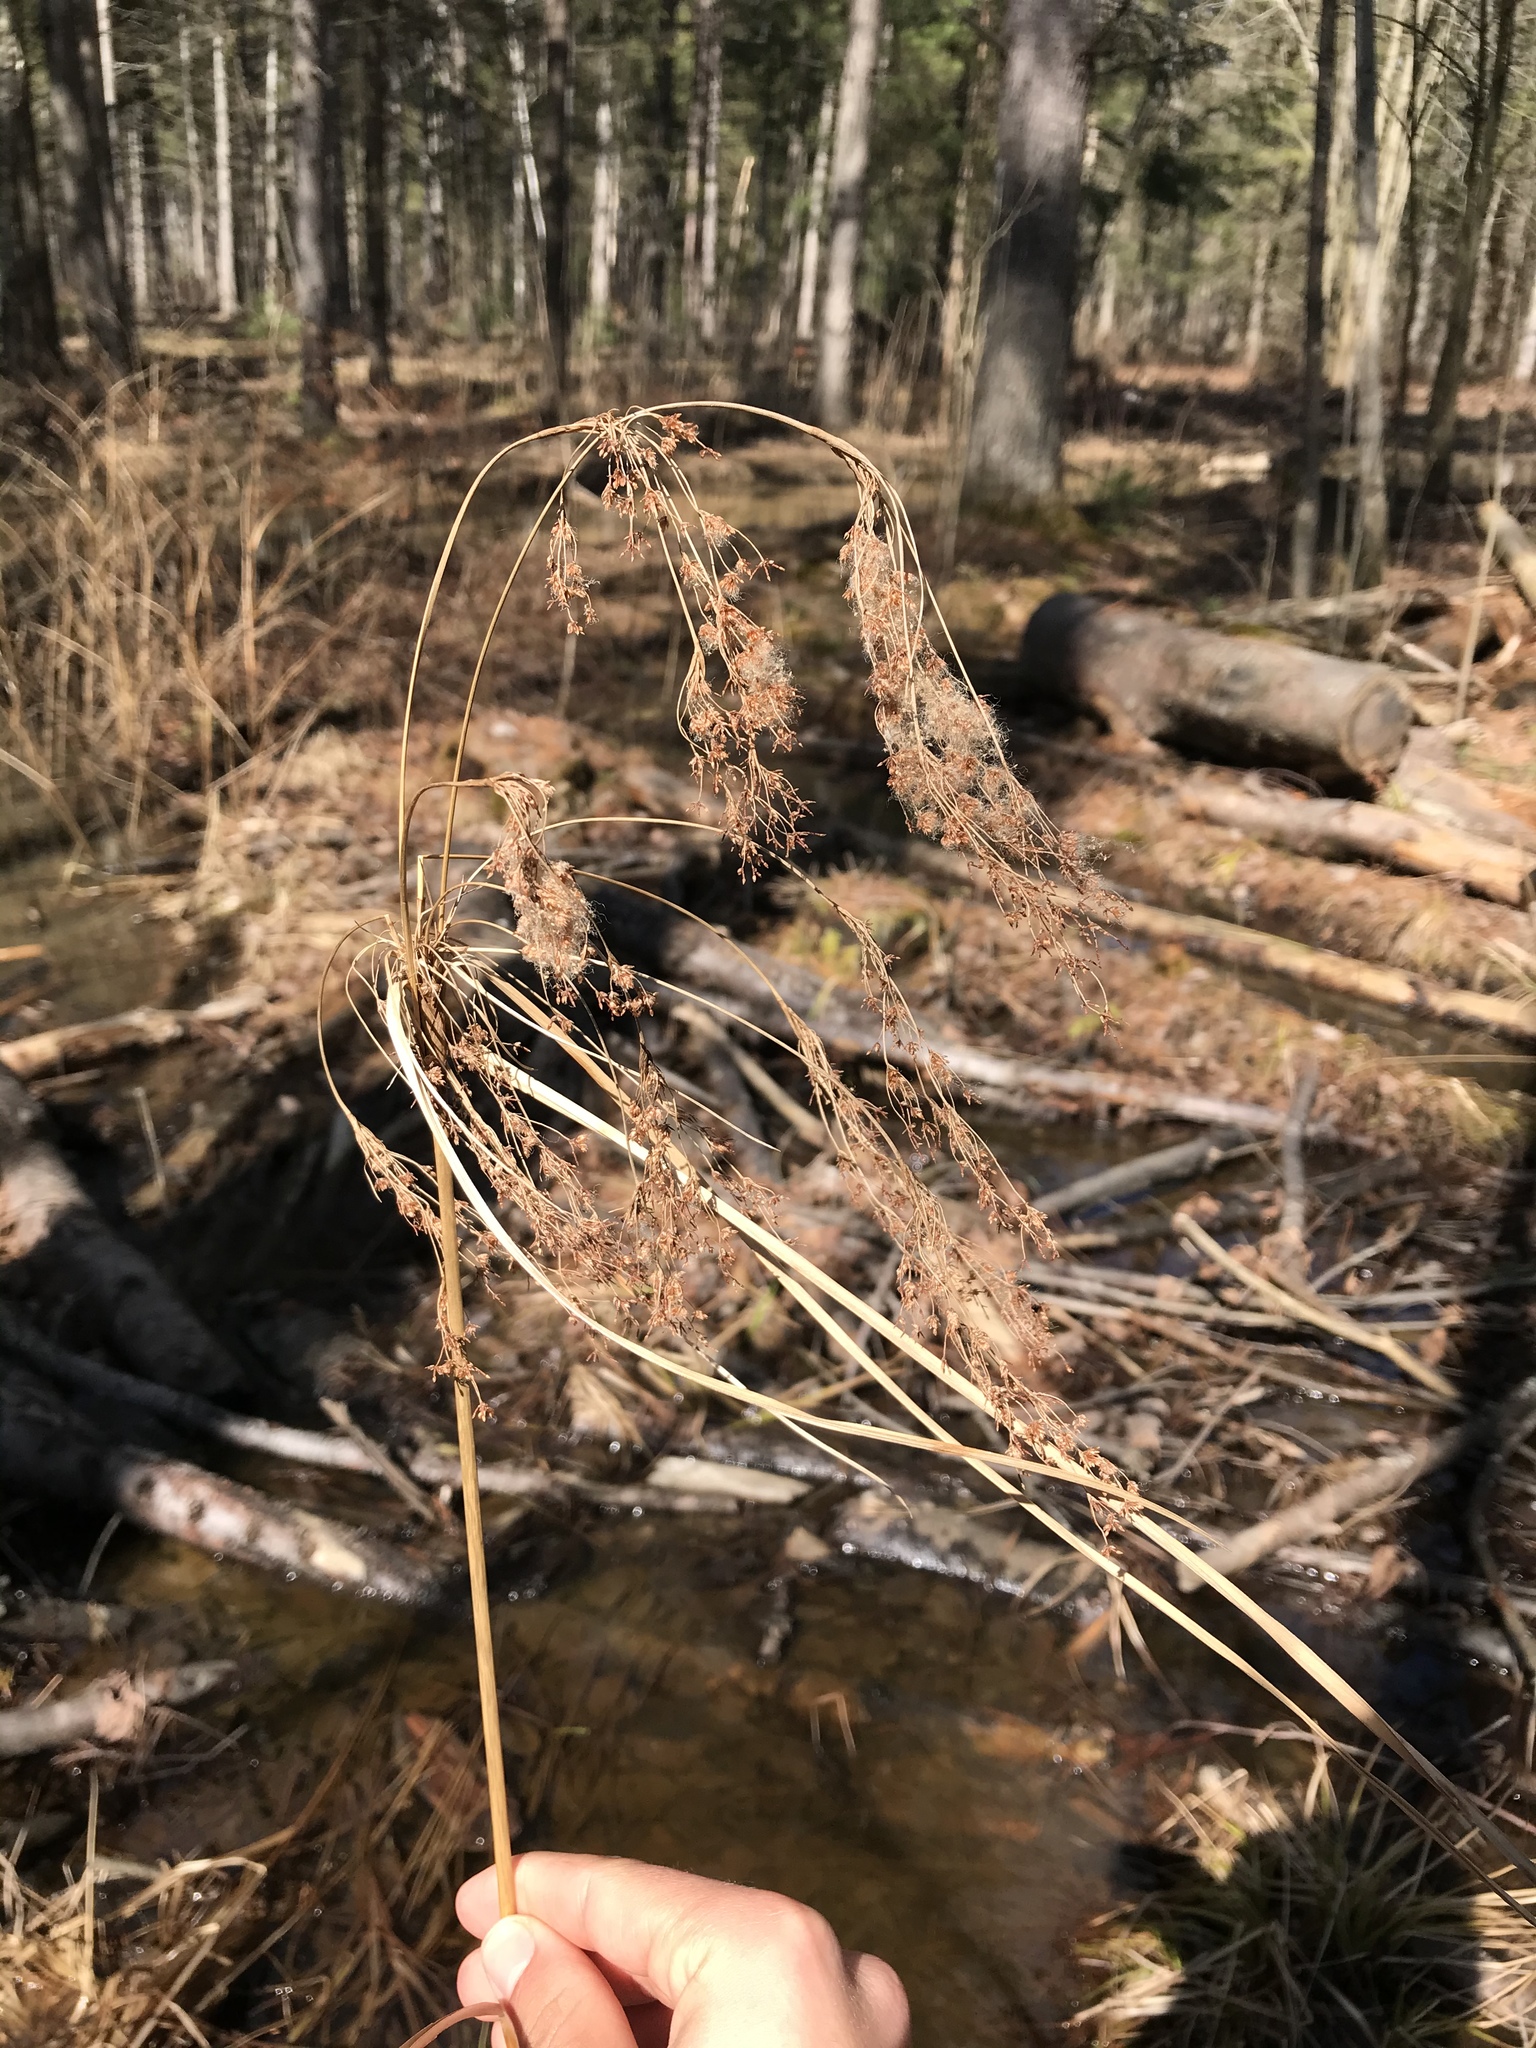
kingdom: Plantae
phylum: Tracheophyta
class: Liliopsida
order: Poales
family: Cyperaceae
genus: Scirpus
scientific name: Scirpus cyperinus
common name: Black-sheathed bulrush
